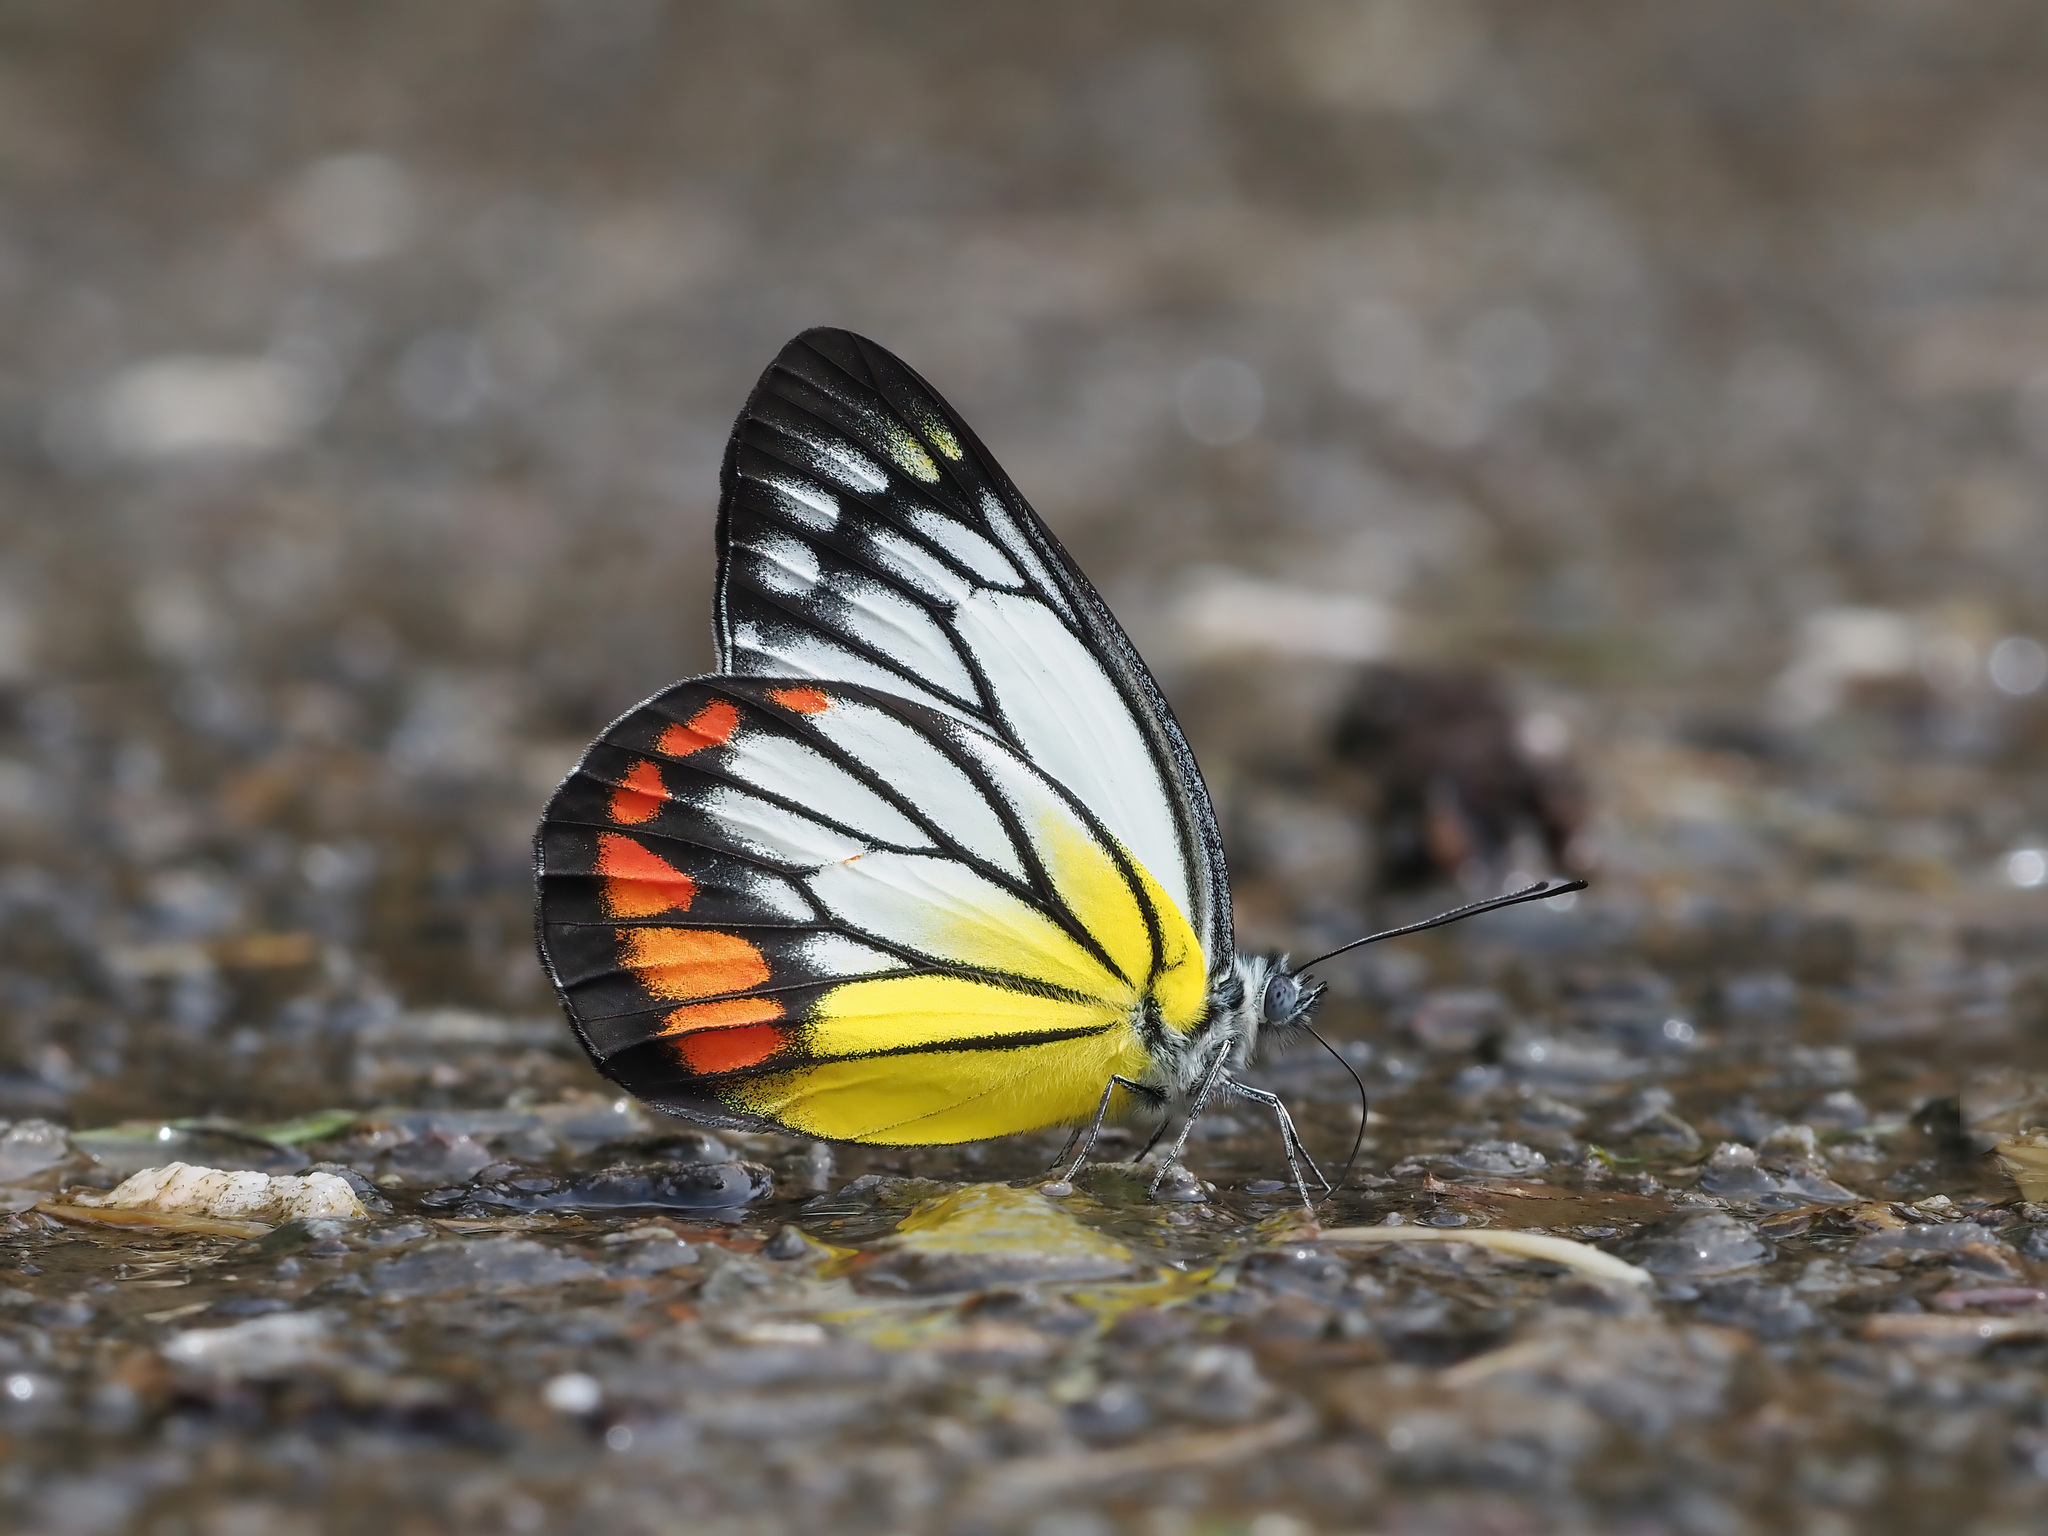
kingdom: Animalia
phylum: Arthropoda
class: Insecta
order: Lepidoptera
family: Pieridae
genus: Delias
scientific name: Delias hyparete
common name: Painted jezebel
